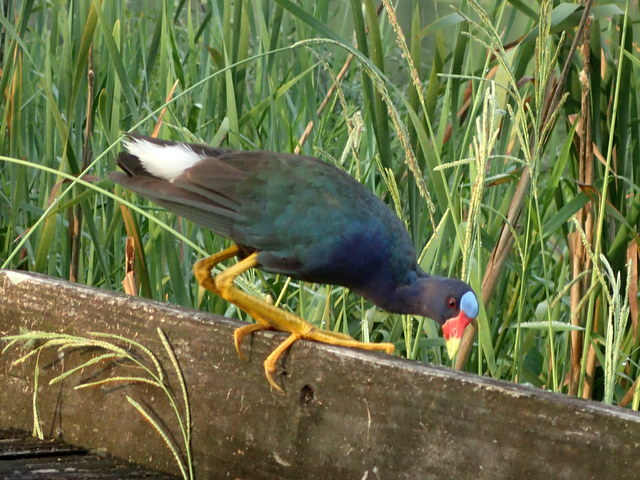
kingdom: Animalia
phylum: Chordata
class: Aves
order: Gruiformes
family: Rallidae
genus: Porphyrio
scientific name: Porphyrio martinica
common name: Purple gallinule
